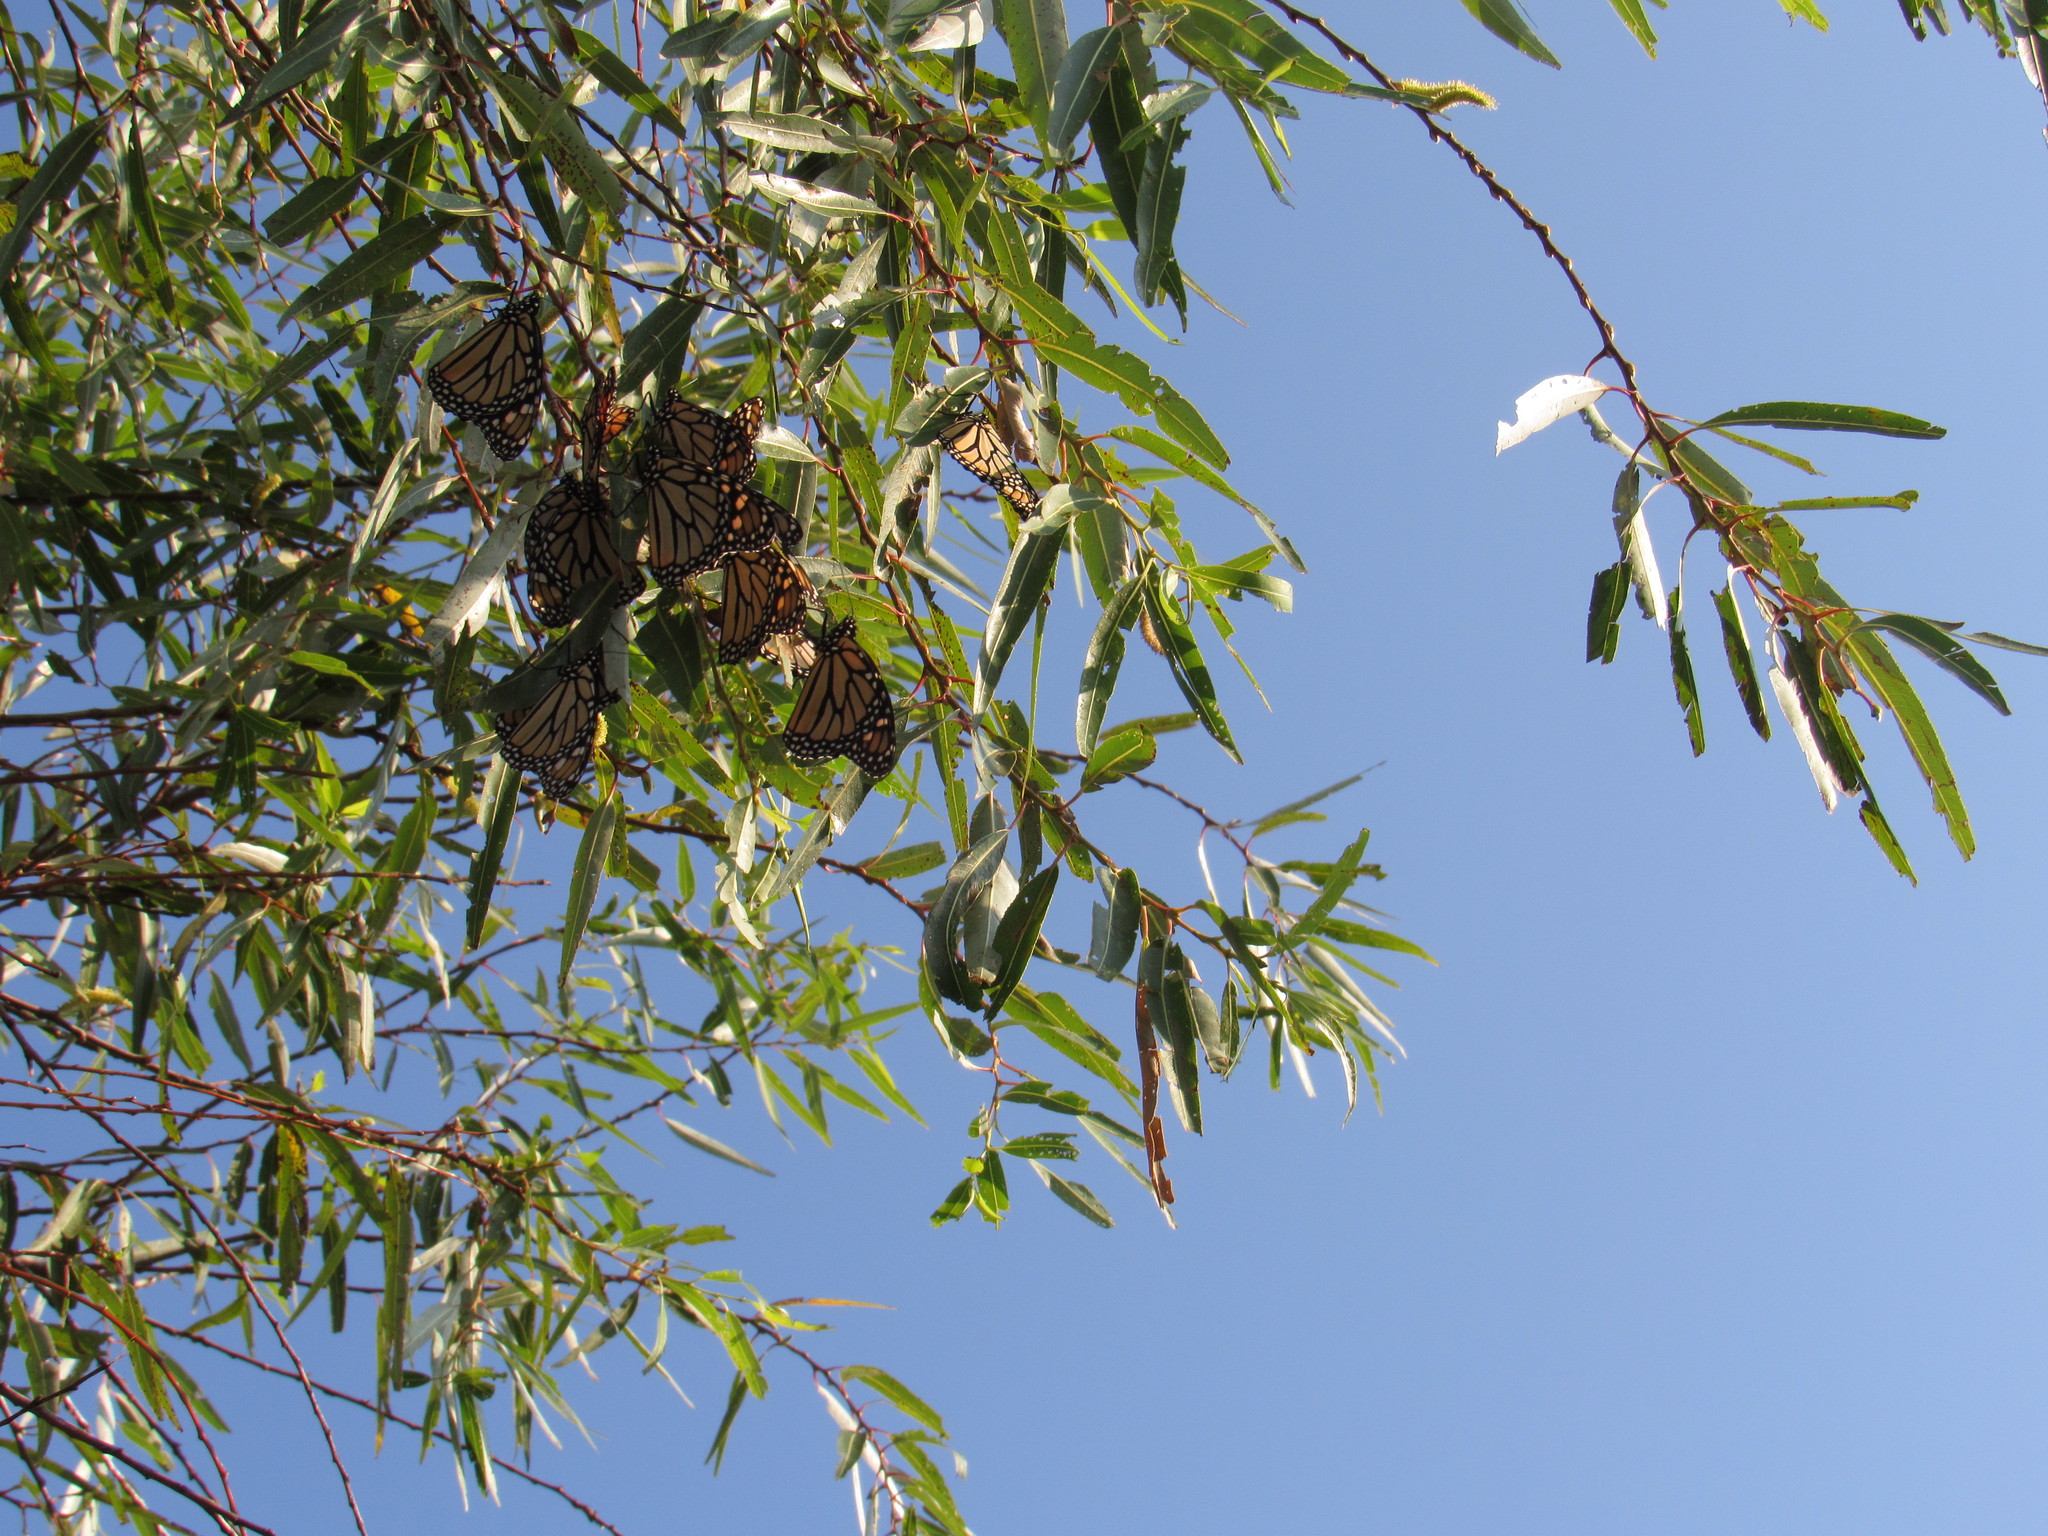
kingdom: Animalia
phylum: Arthropoda
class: Insecta
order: Lepidoptera
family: Nymphalidae
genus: Danaus
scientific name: Danaus plexippus
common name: Monarch
